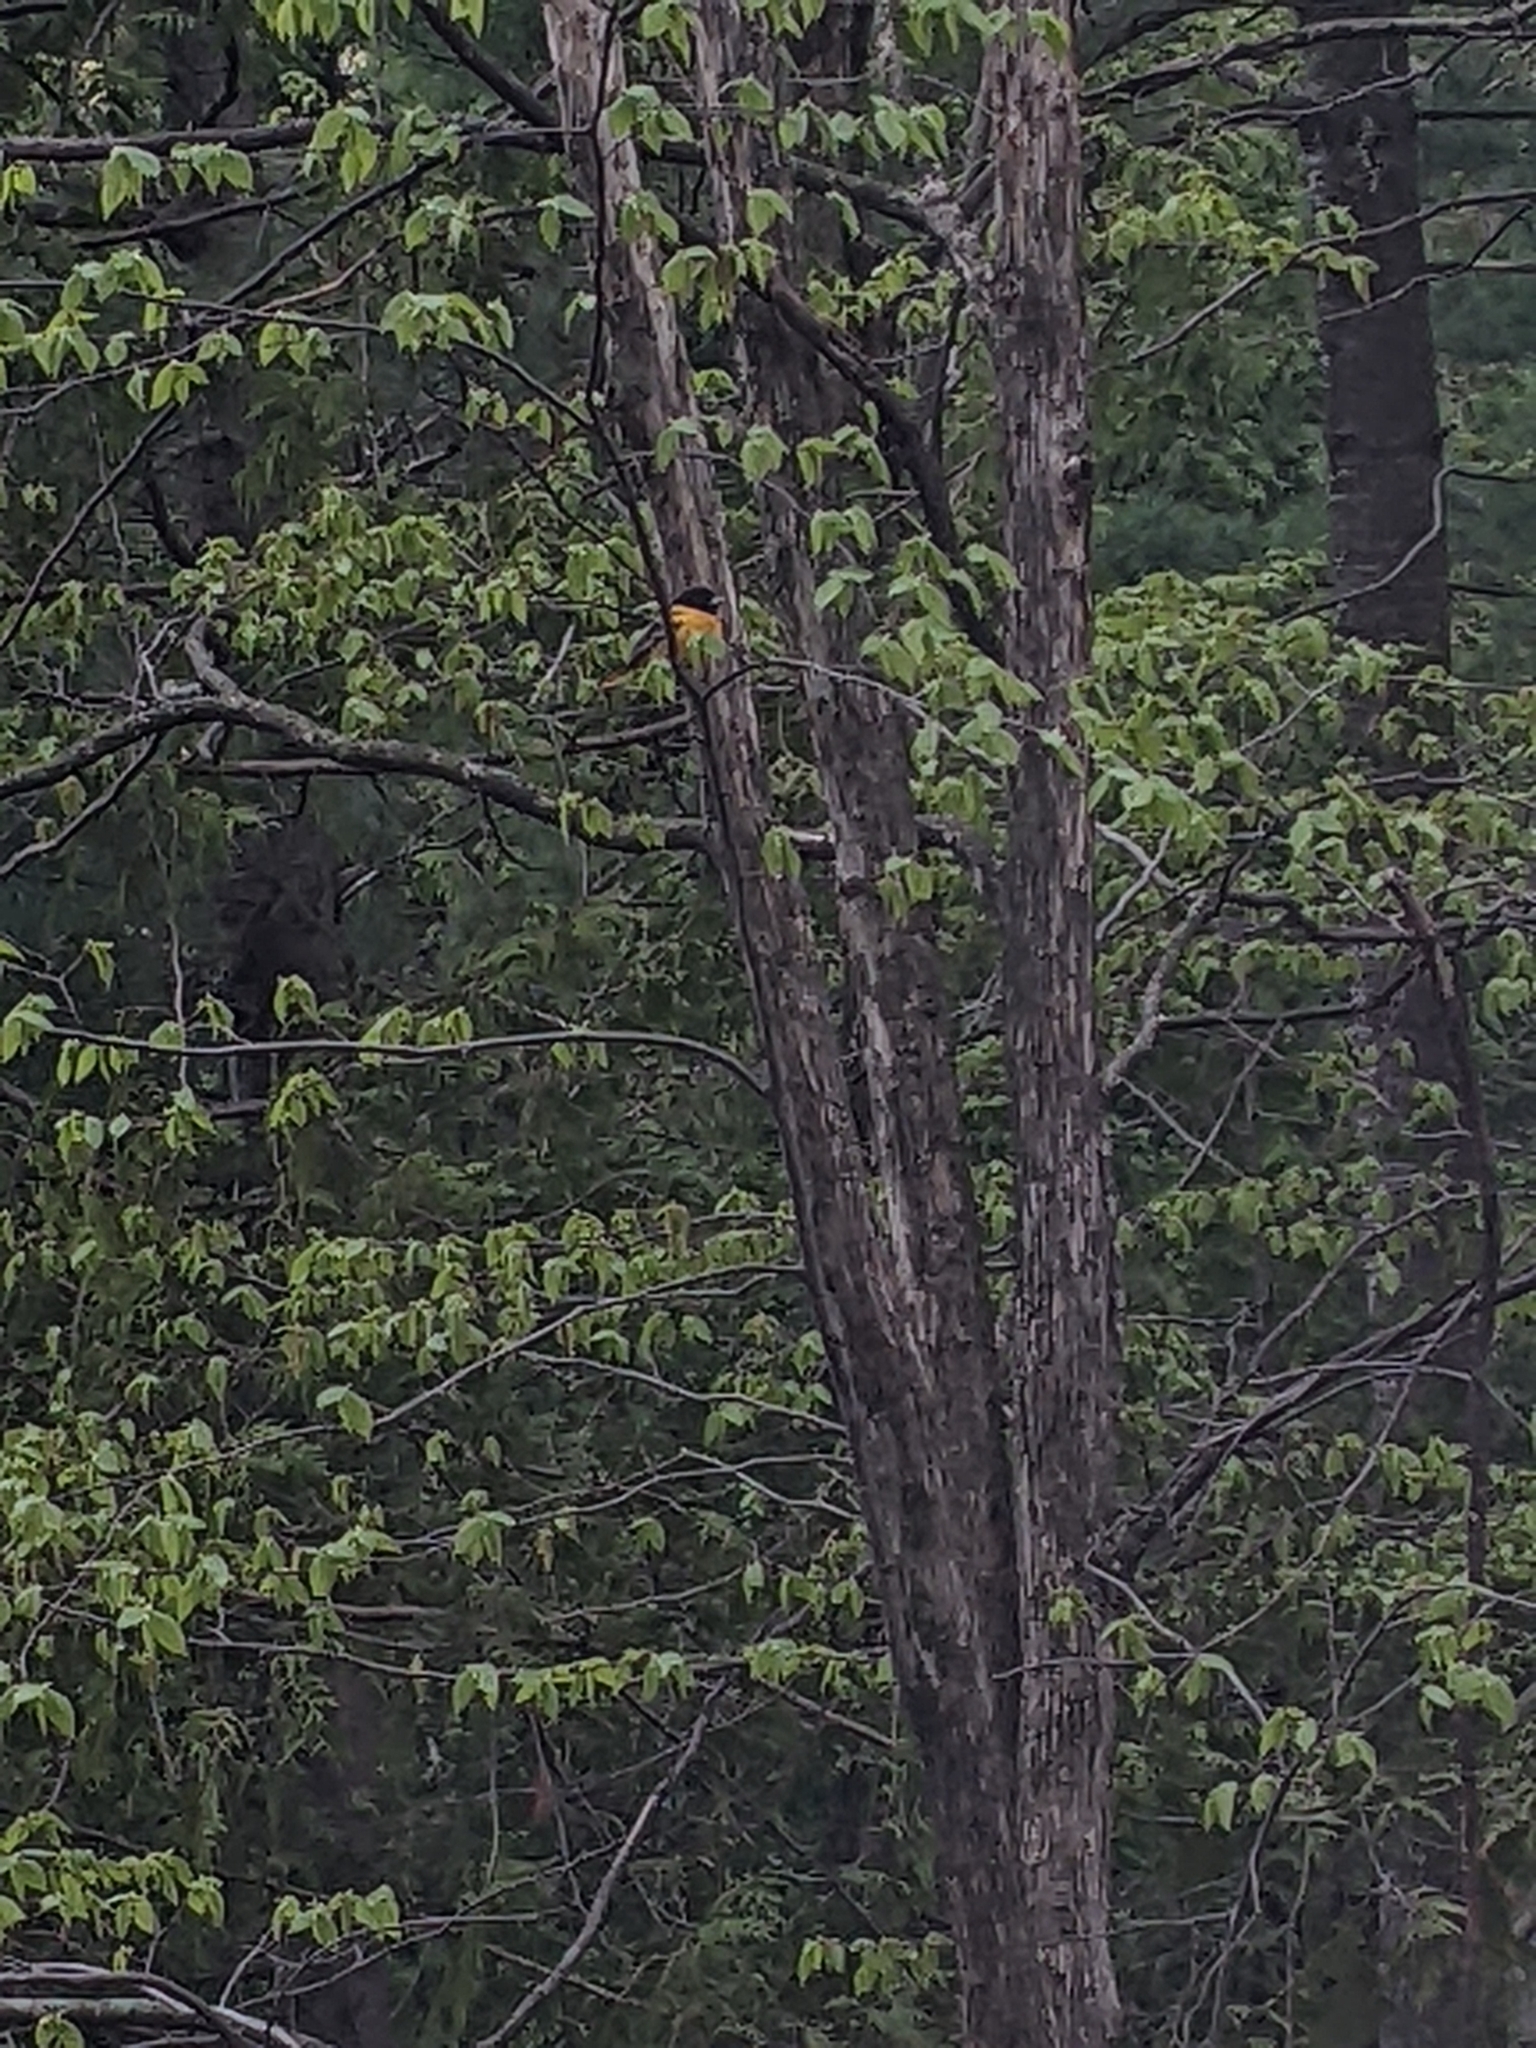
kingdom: Animalia
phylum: Chordata
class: Aves
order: Passeriformes
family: Icteridae
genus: Icterus
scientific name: Icterus galbula
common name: Baltimore oriole
